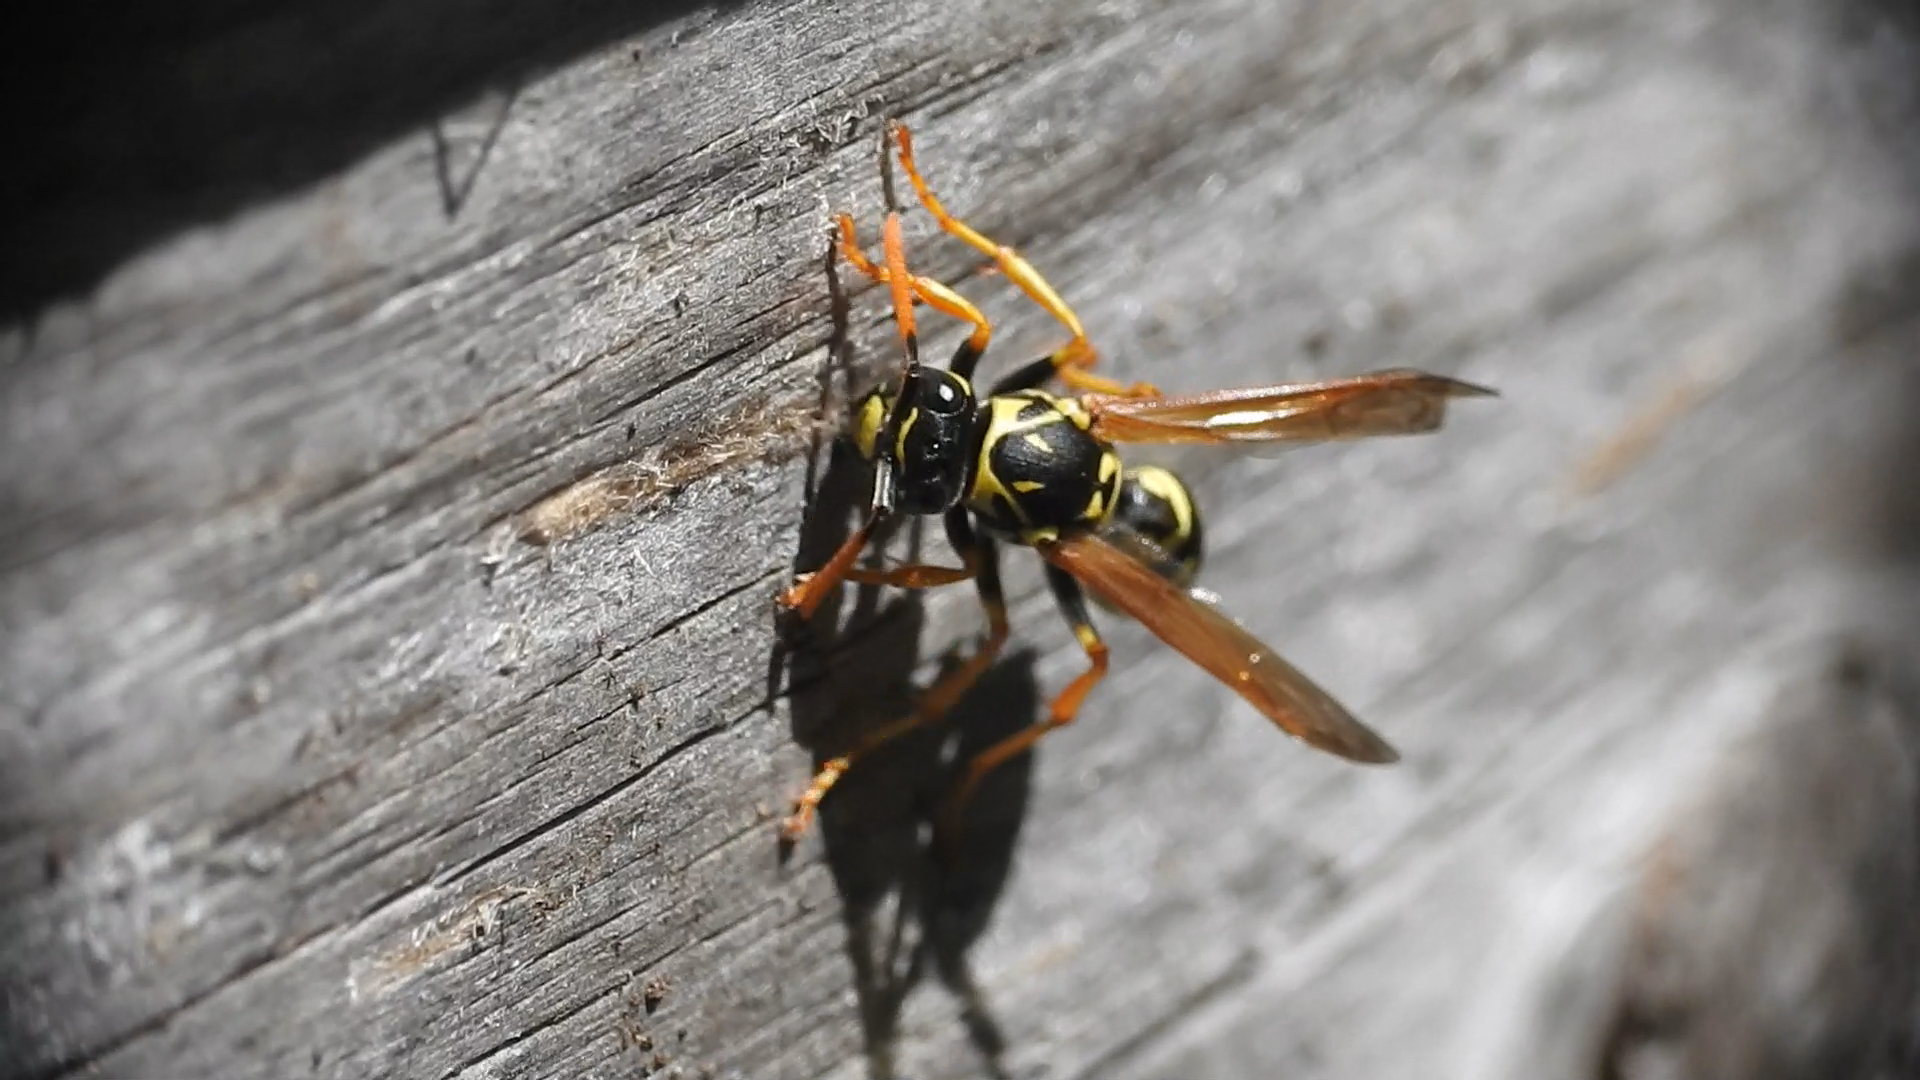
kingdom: Animalia
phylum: Arthropoda
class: Insecta
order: Hymenoptera
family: Eumenidae
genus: Polistes
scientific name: Polistes dominula
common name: Paper wasp
